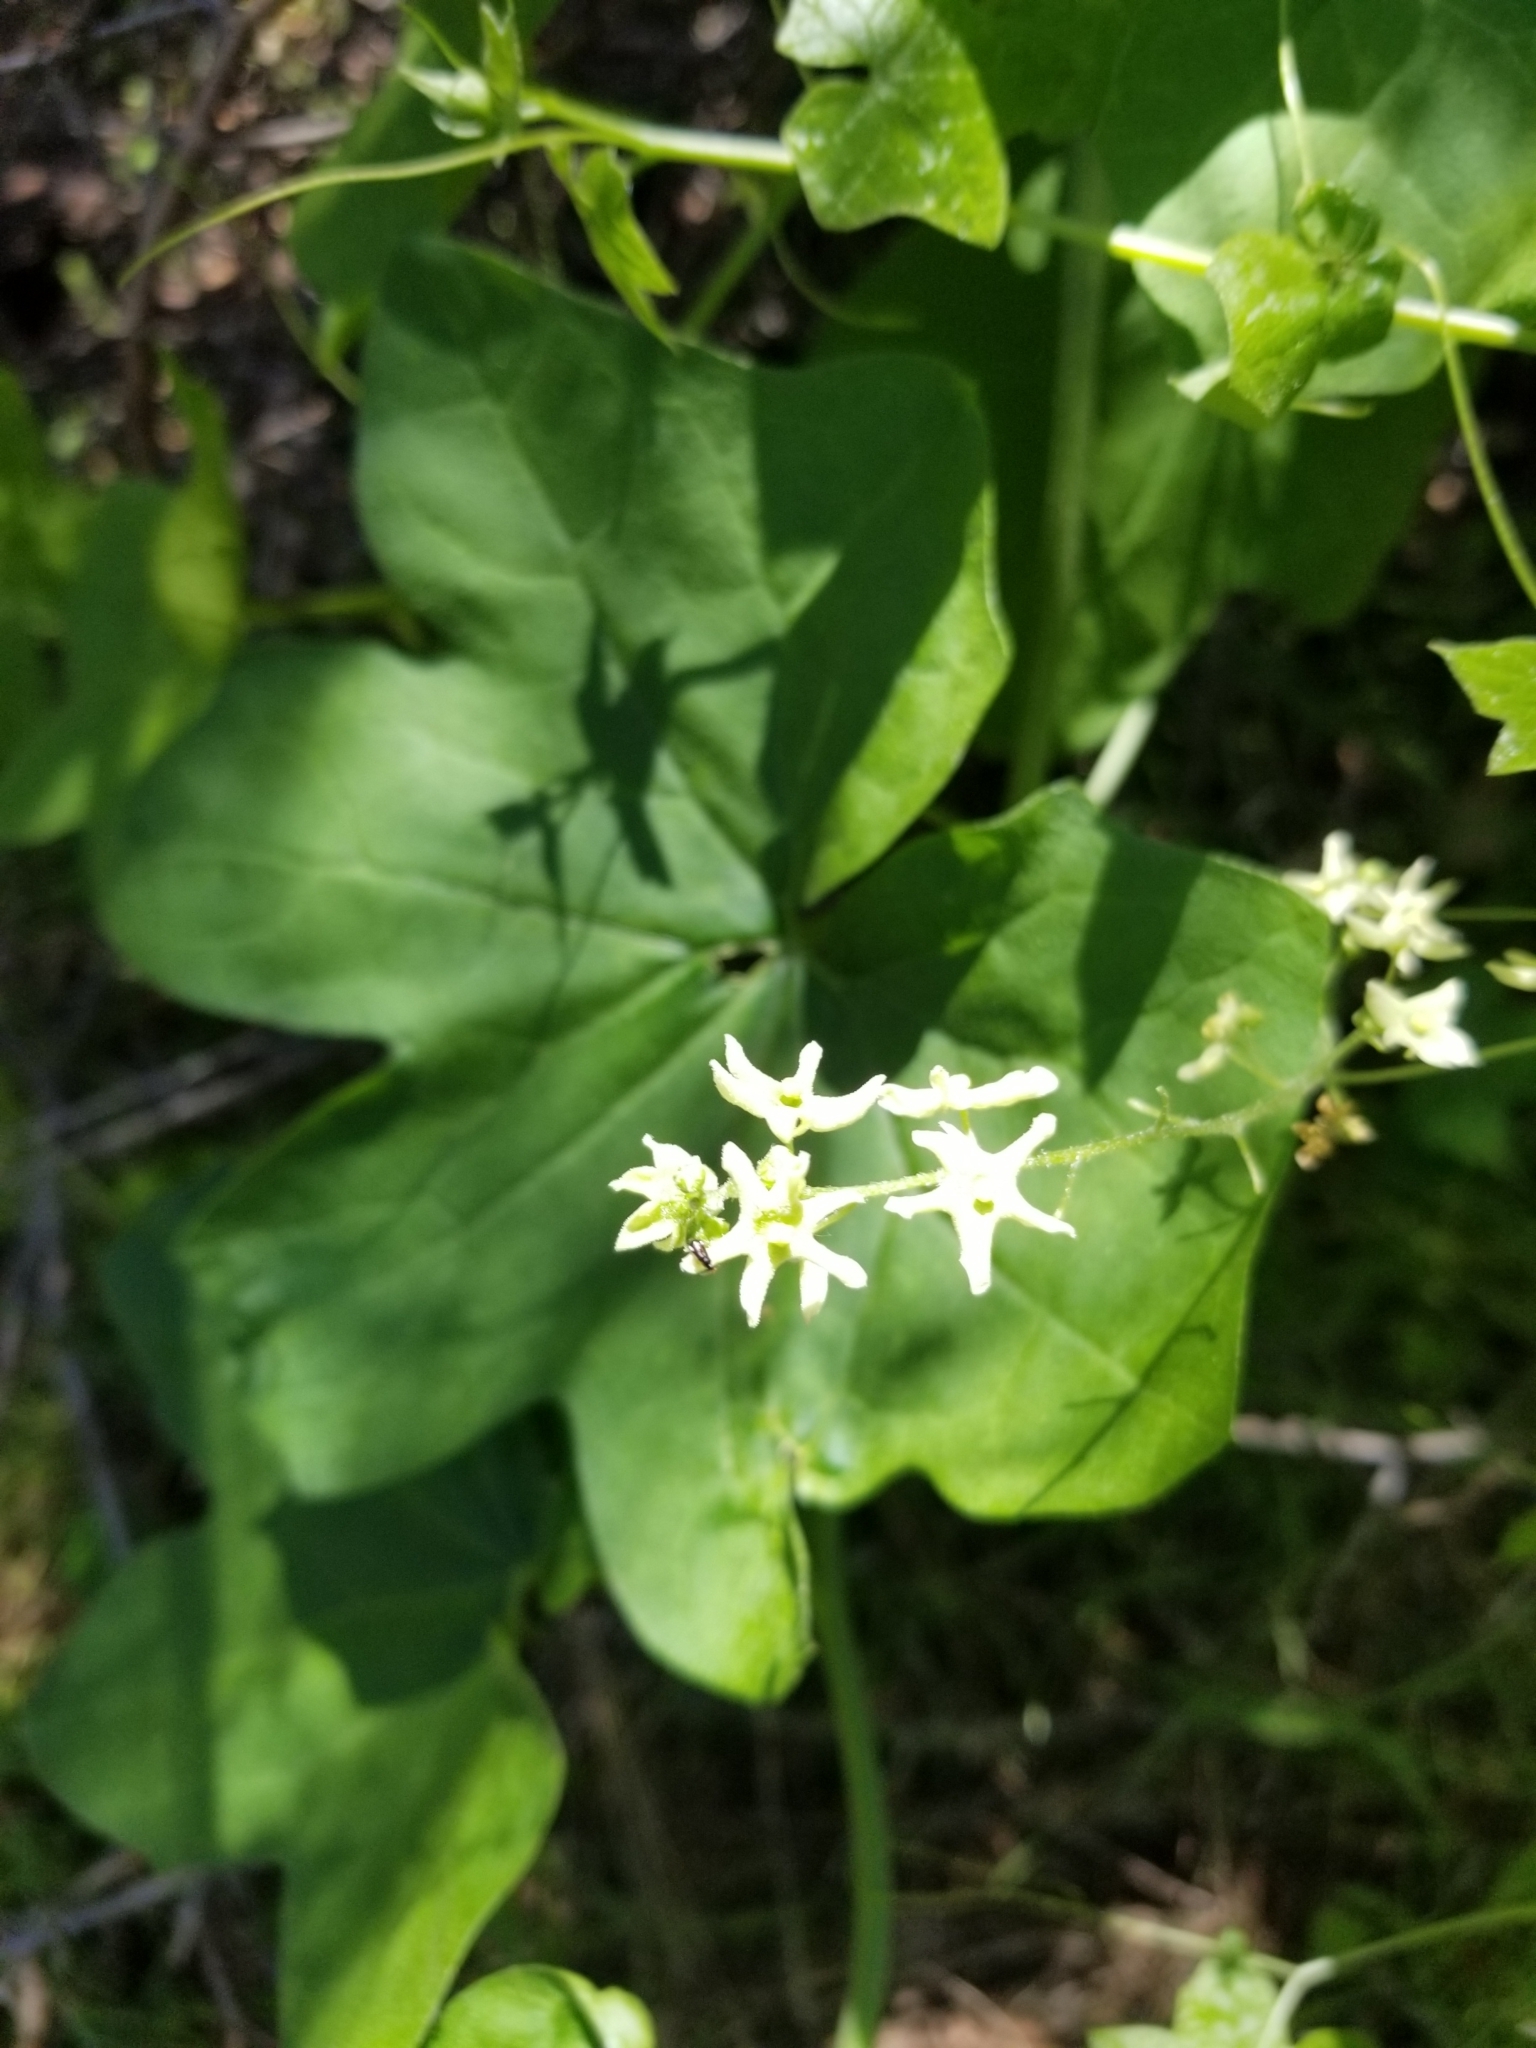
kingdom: Plantae
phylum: Tracheophyta
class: Magnoliopsida
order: Cucurbitales
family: Cucurbitaceae
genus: Marah
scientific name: Marah fabacea
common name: California manroot
